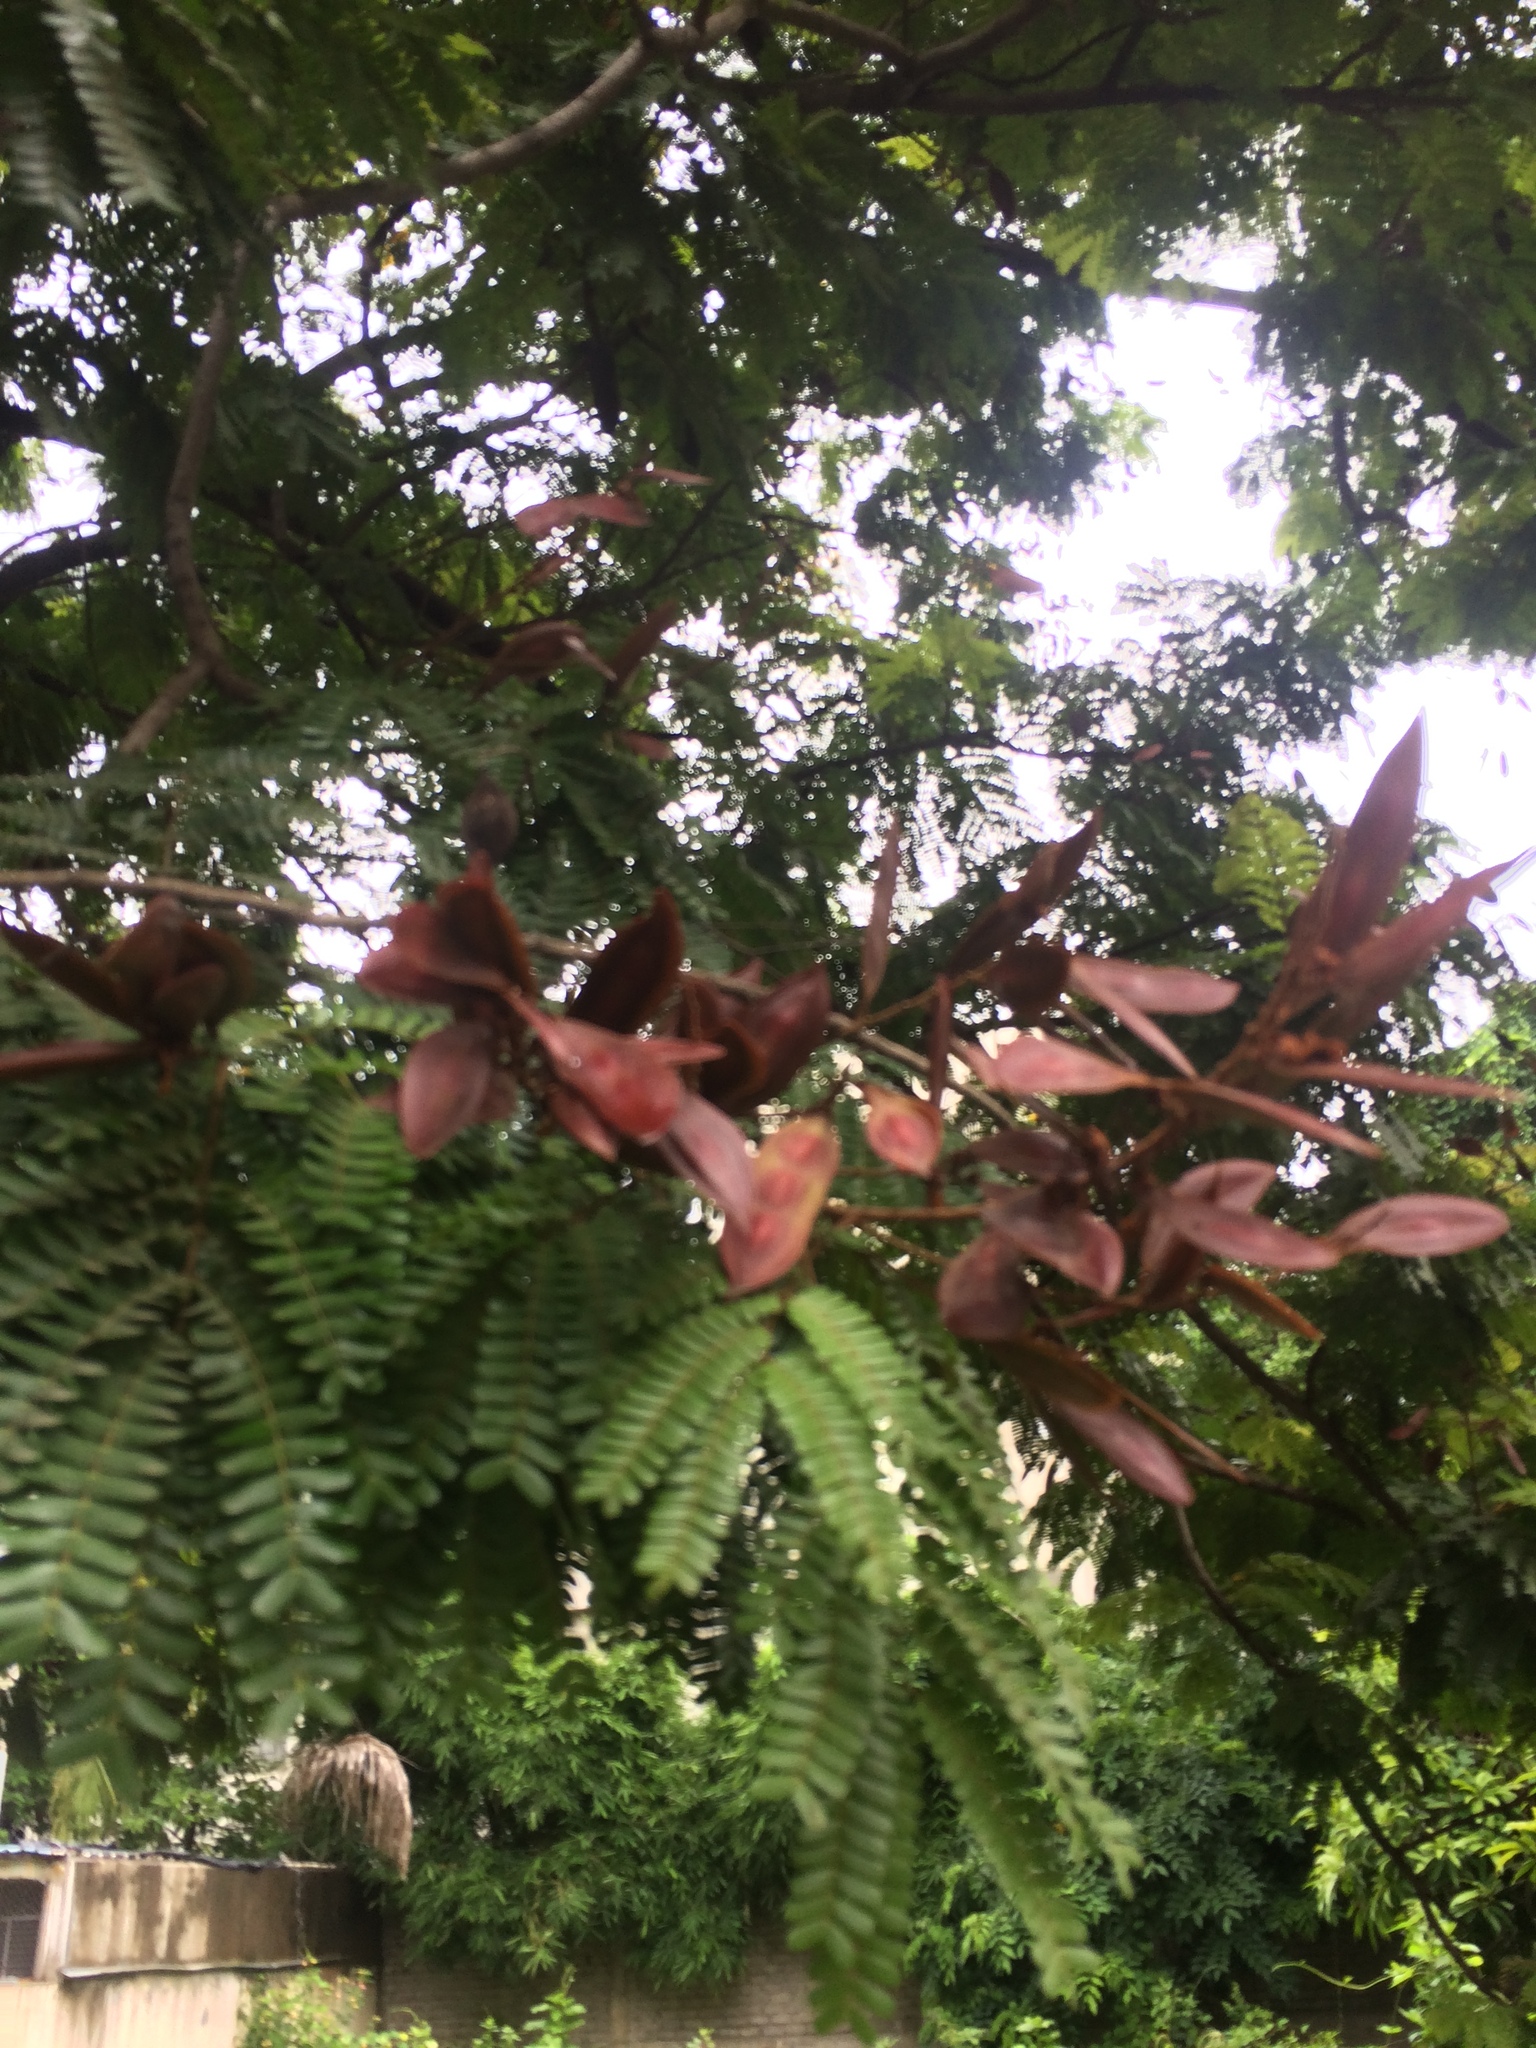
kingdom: Plantae
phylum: Tracheophyta
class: Magnoliopsida
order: Fabales
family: Fabaceae
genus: Peltophorum
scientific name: Peltophorum pterocarpum
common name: Yellow flame
